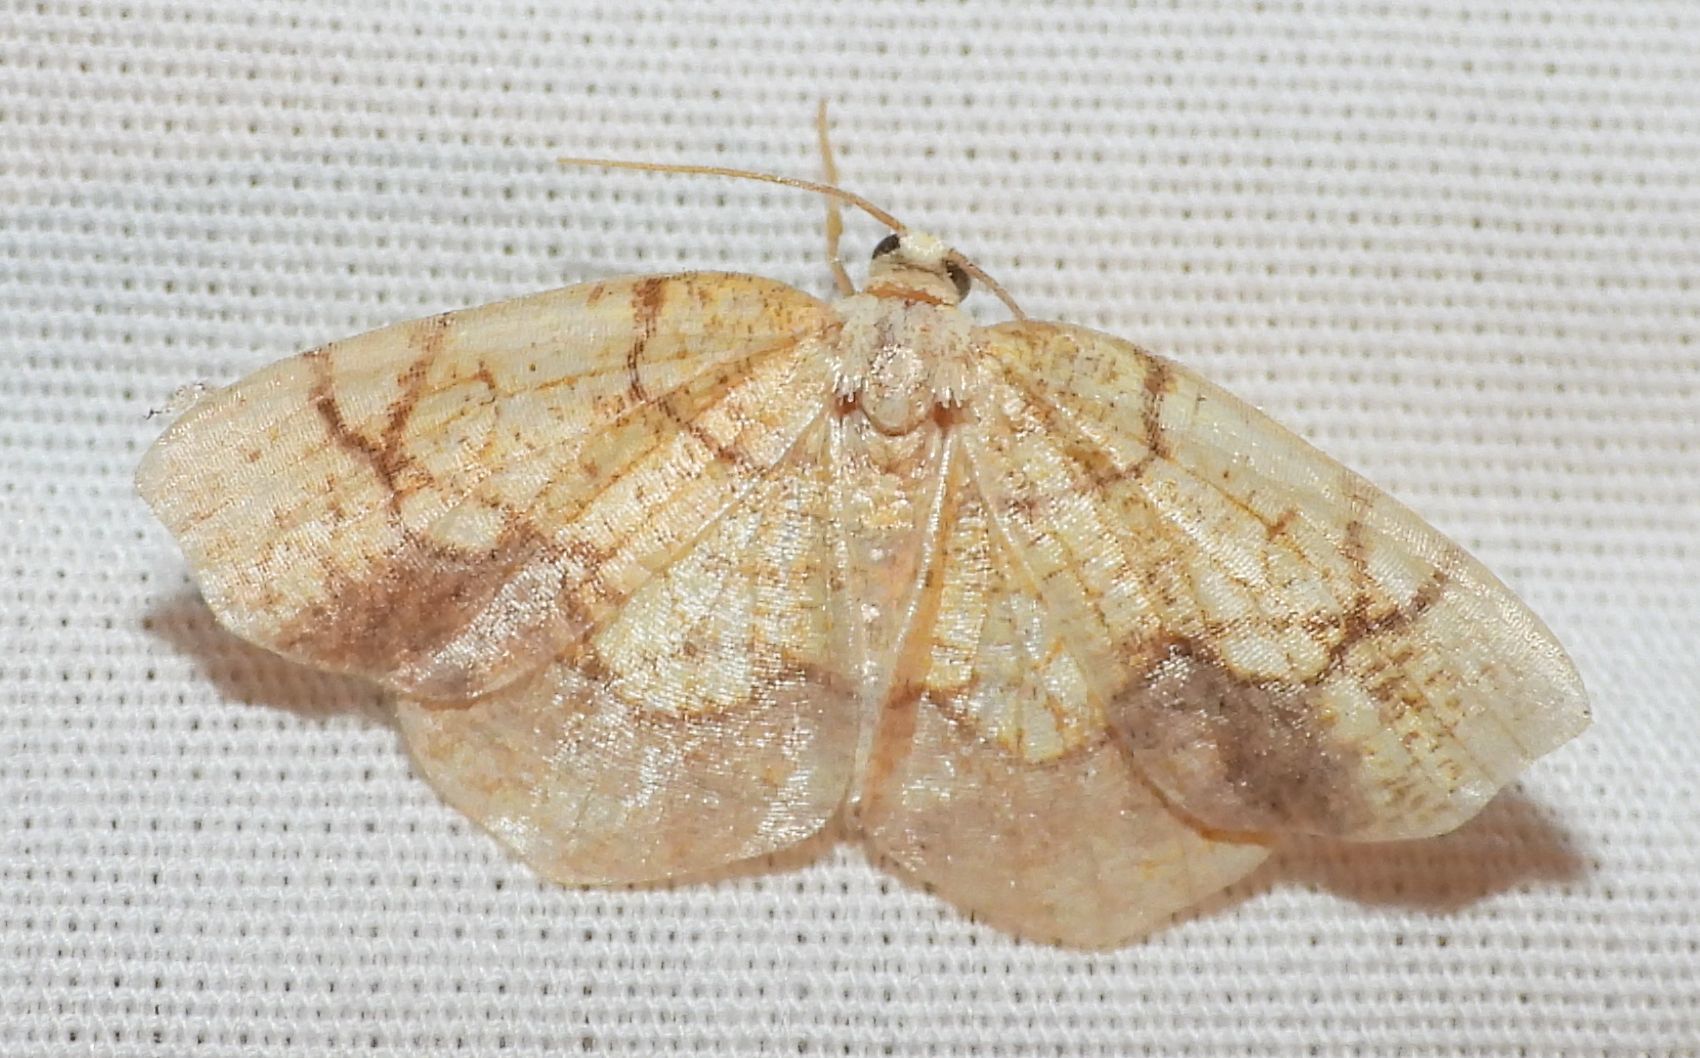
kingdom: Animalia
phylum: Arthropoda
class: Insecta
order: Lepidoptera
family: Geometridae
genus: Nematocampa
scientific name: Nematocampa resistaria
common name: Horned spanworm moth
